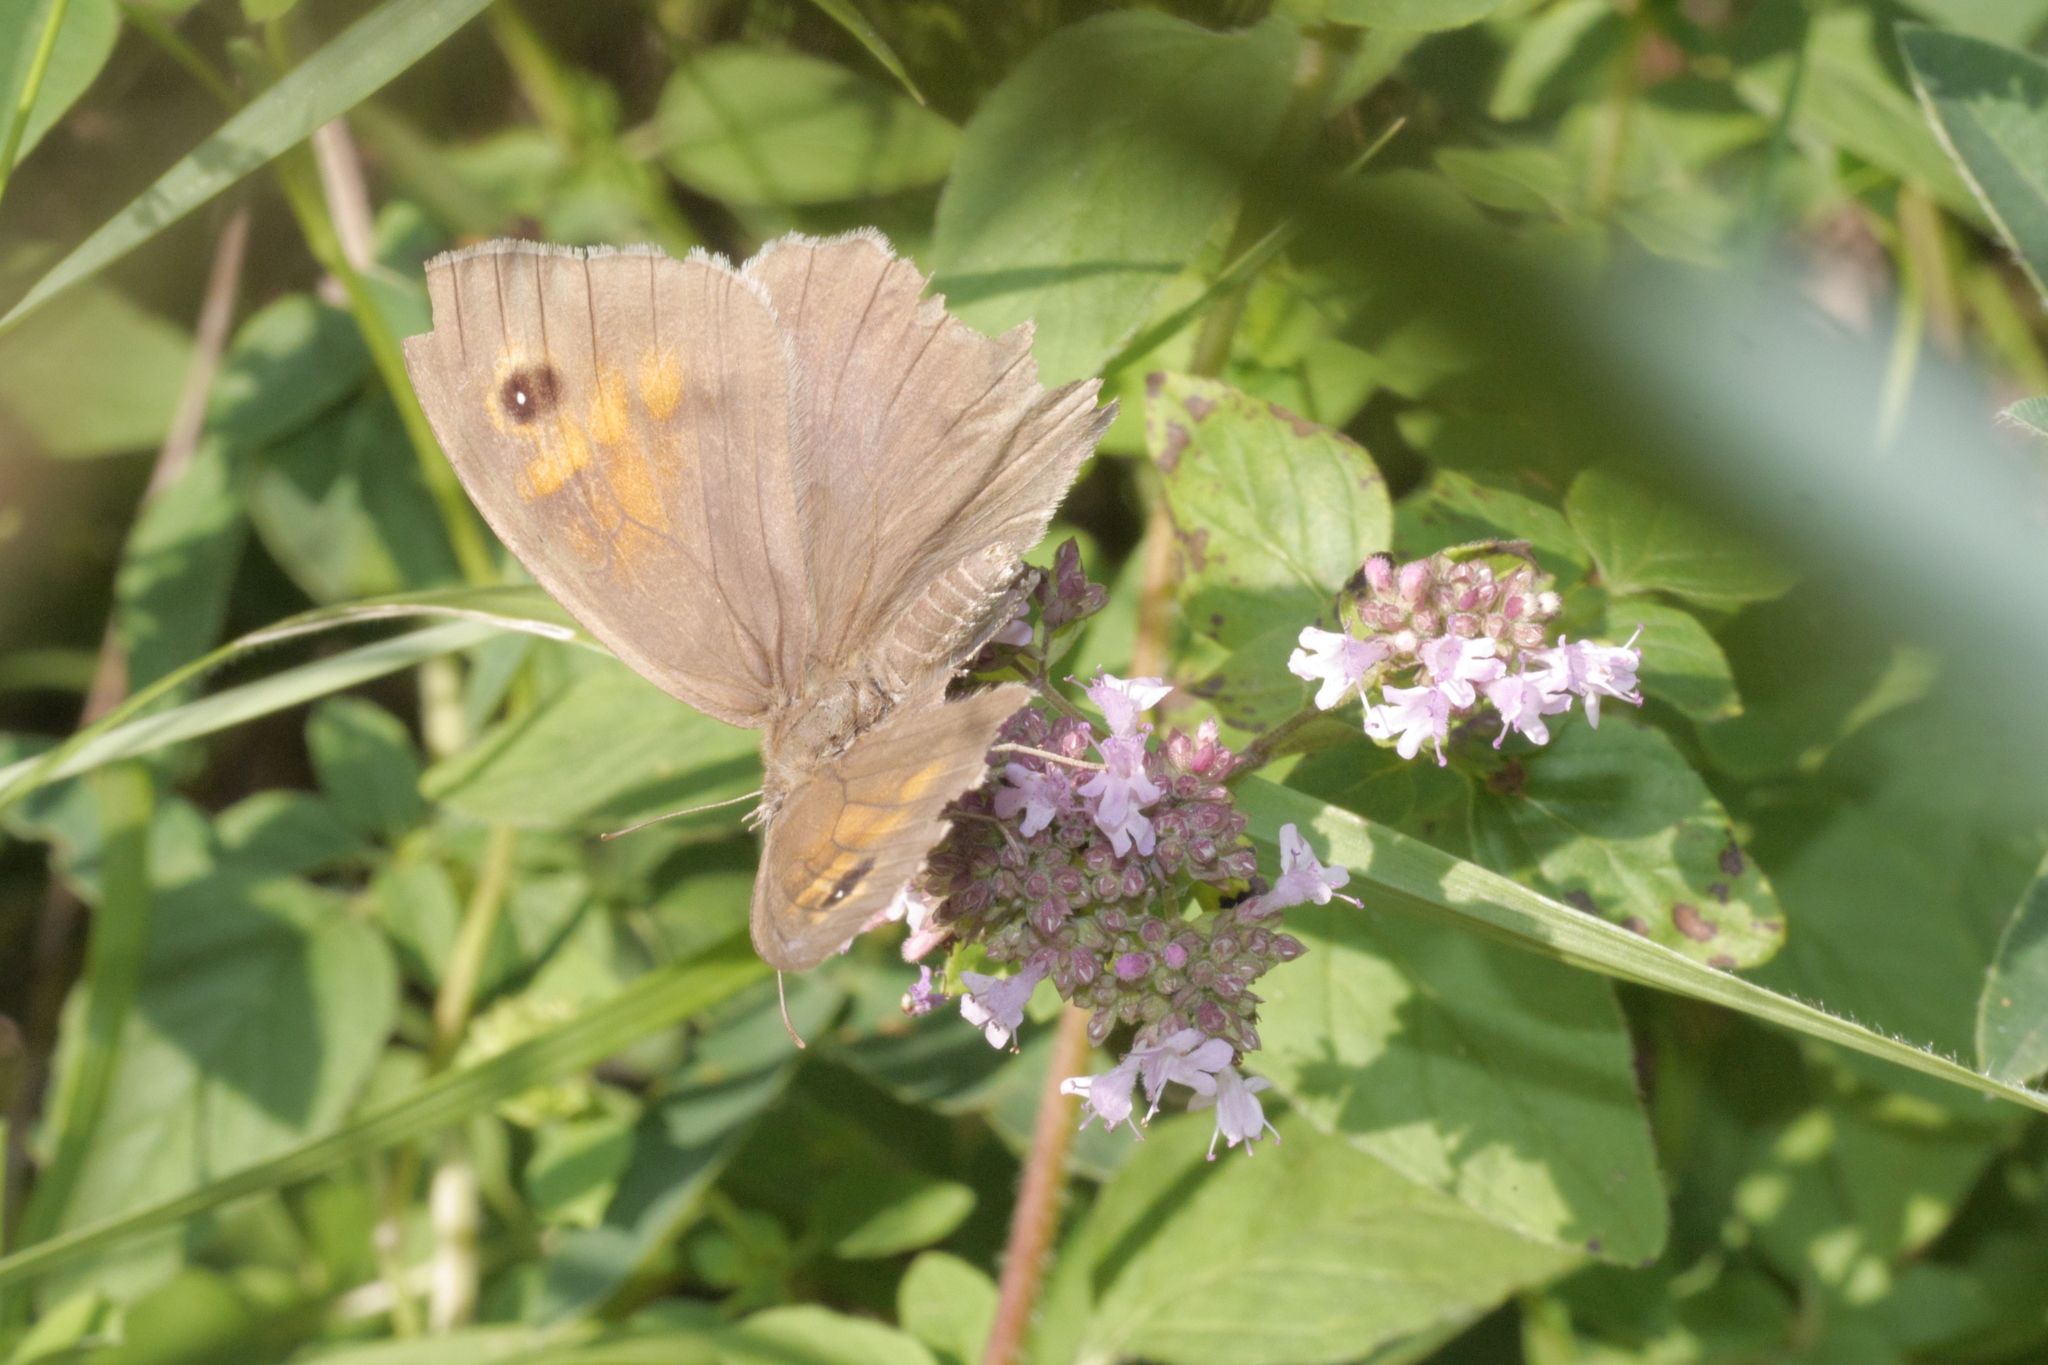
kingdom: Animalia
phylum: Arthropoda
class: Insecta
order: Lepidoptera
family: Nymphalidae
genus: Maniola
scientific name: Maniola jurtina
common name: Meadow brown
